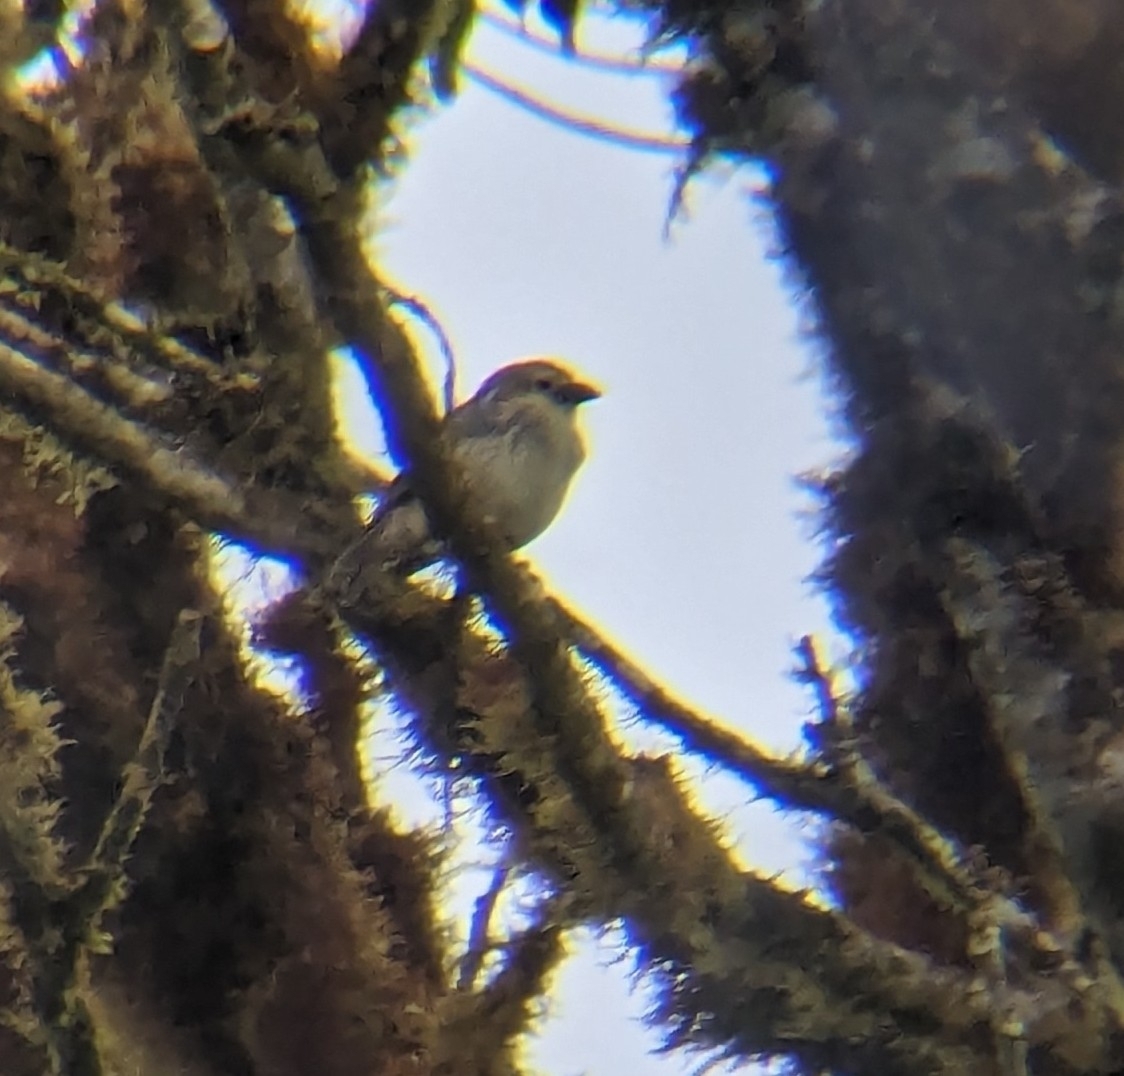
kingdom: Animalia
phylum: Chordata
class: Aves
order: Passeriformes
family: Thraupidae
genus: Camarhynchus
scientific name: Camarhynchus pallidus
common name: Woodpecker finch
